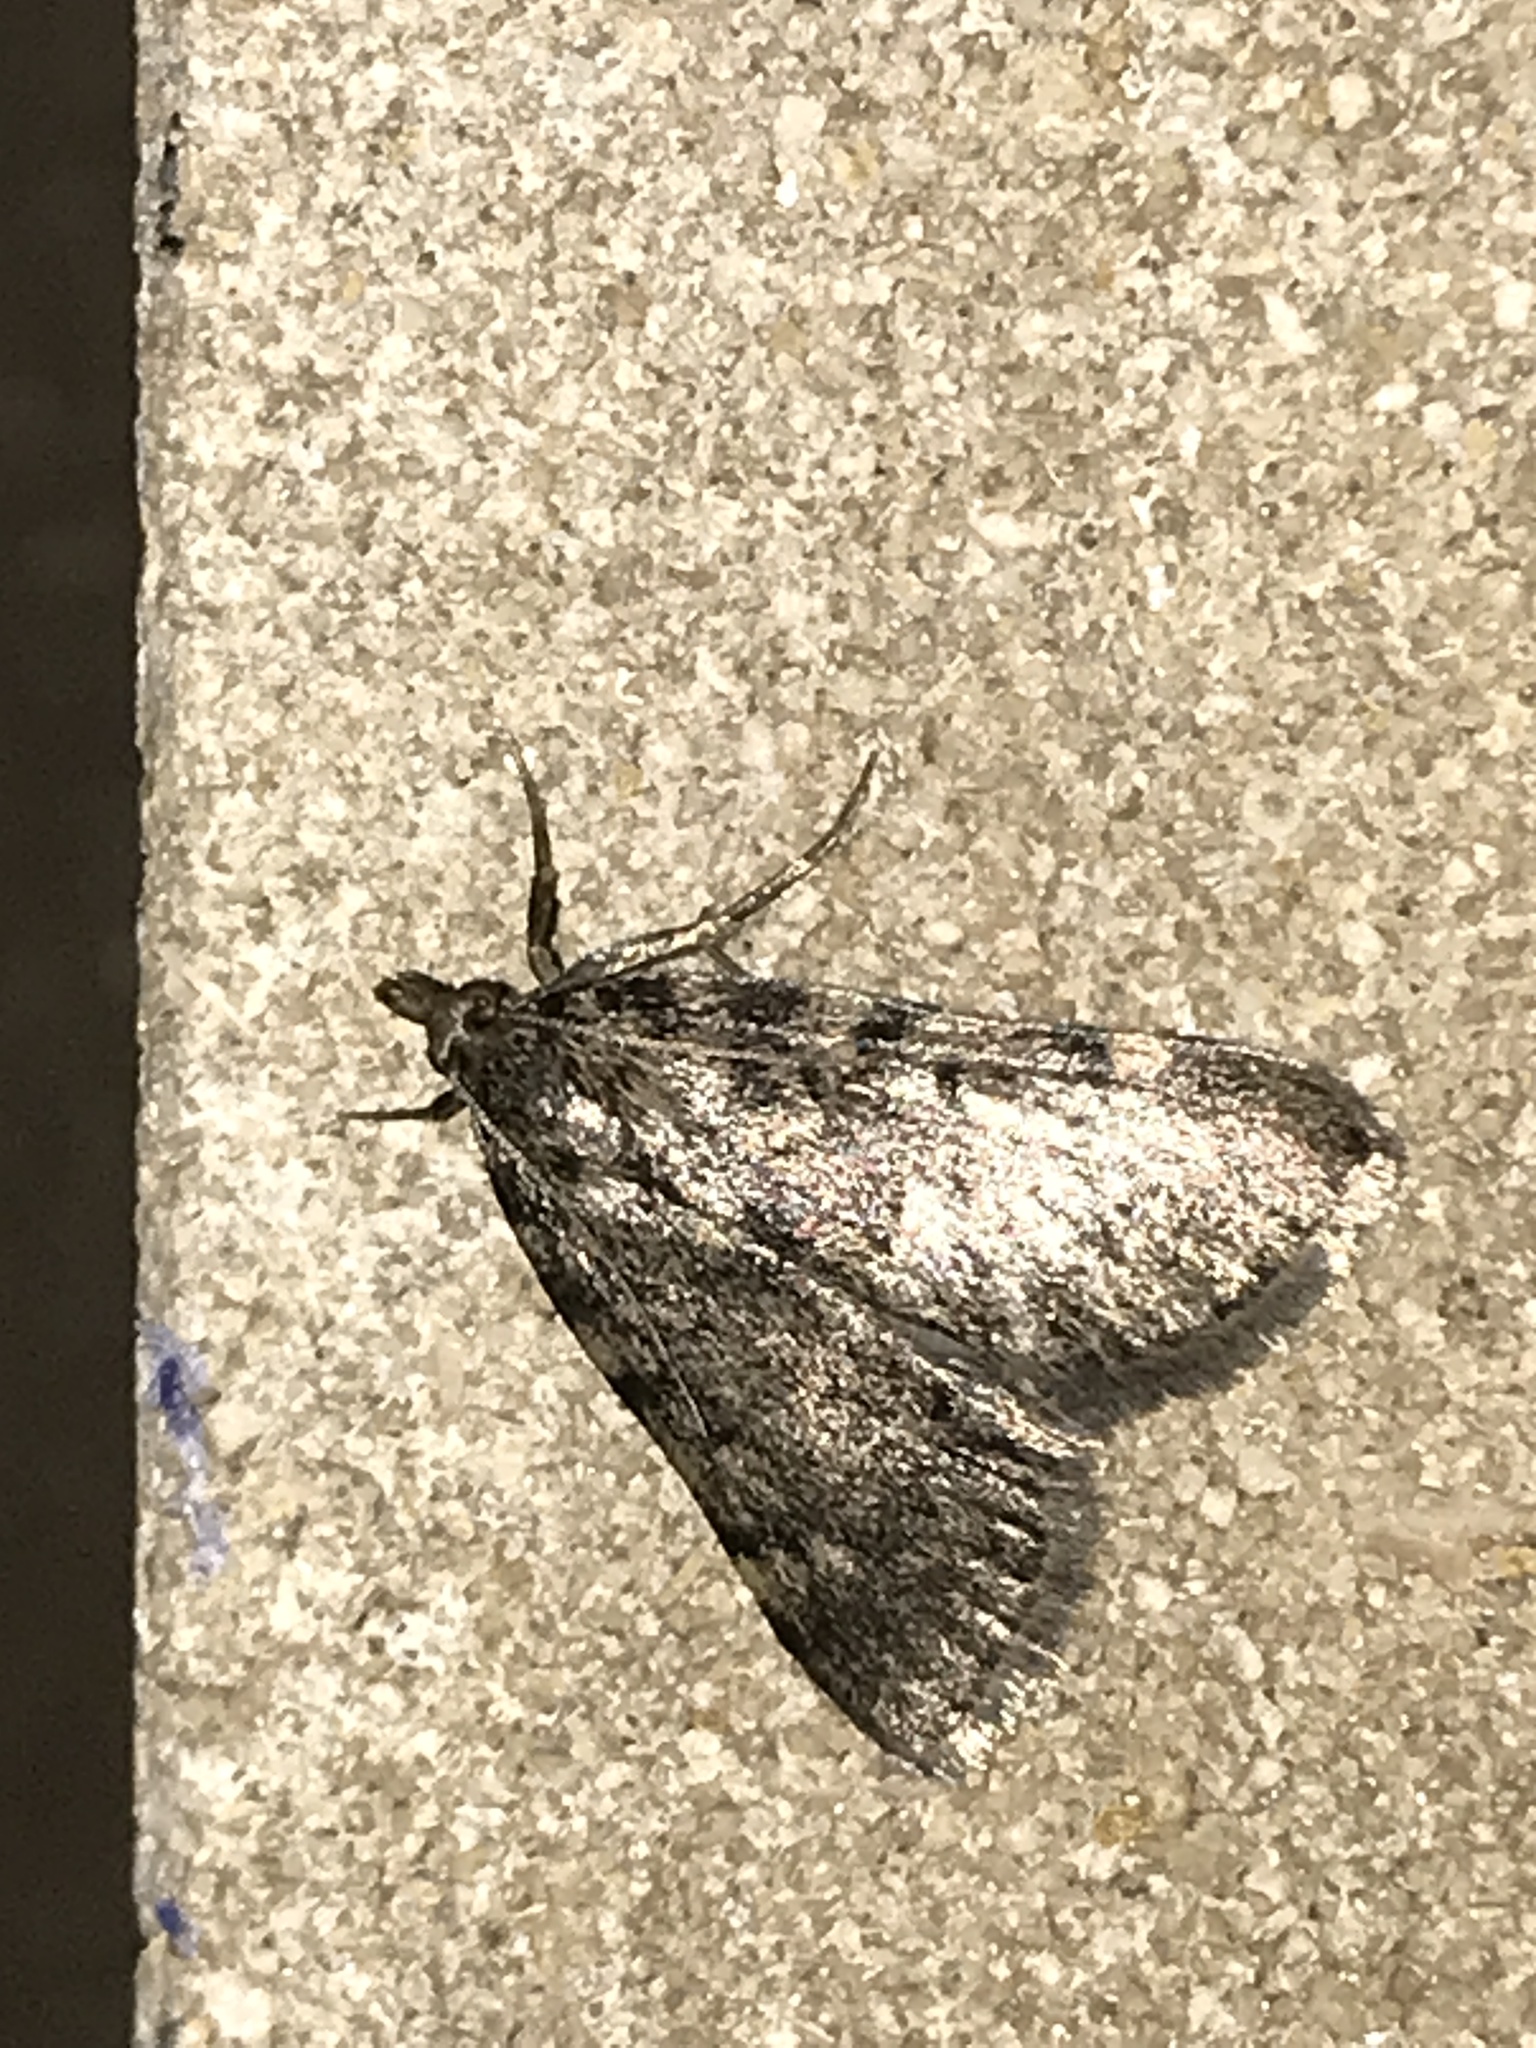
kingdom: Animalia
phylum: Arthropoda
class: Insecta
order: Lepidoptera
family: Pyralidae
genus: Aglossa
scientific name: Aglossa pinguinalis
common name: Large tabby
